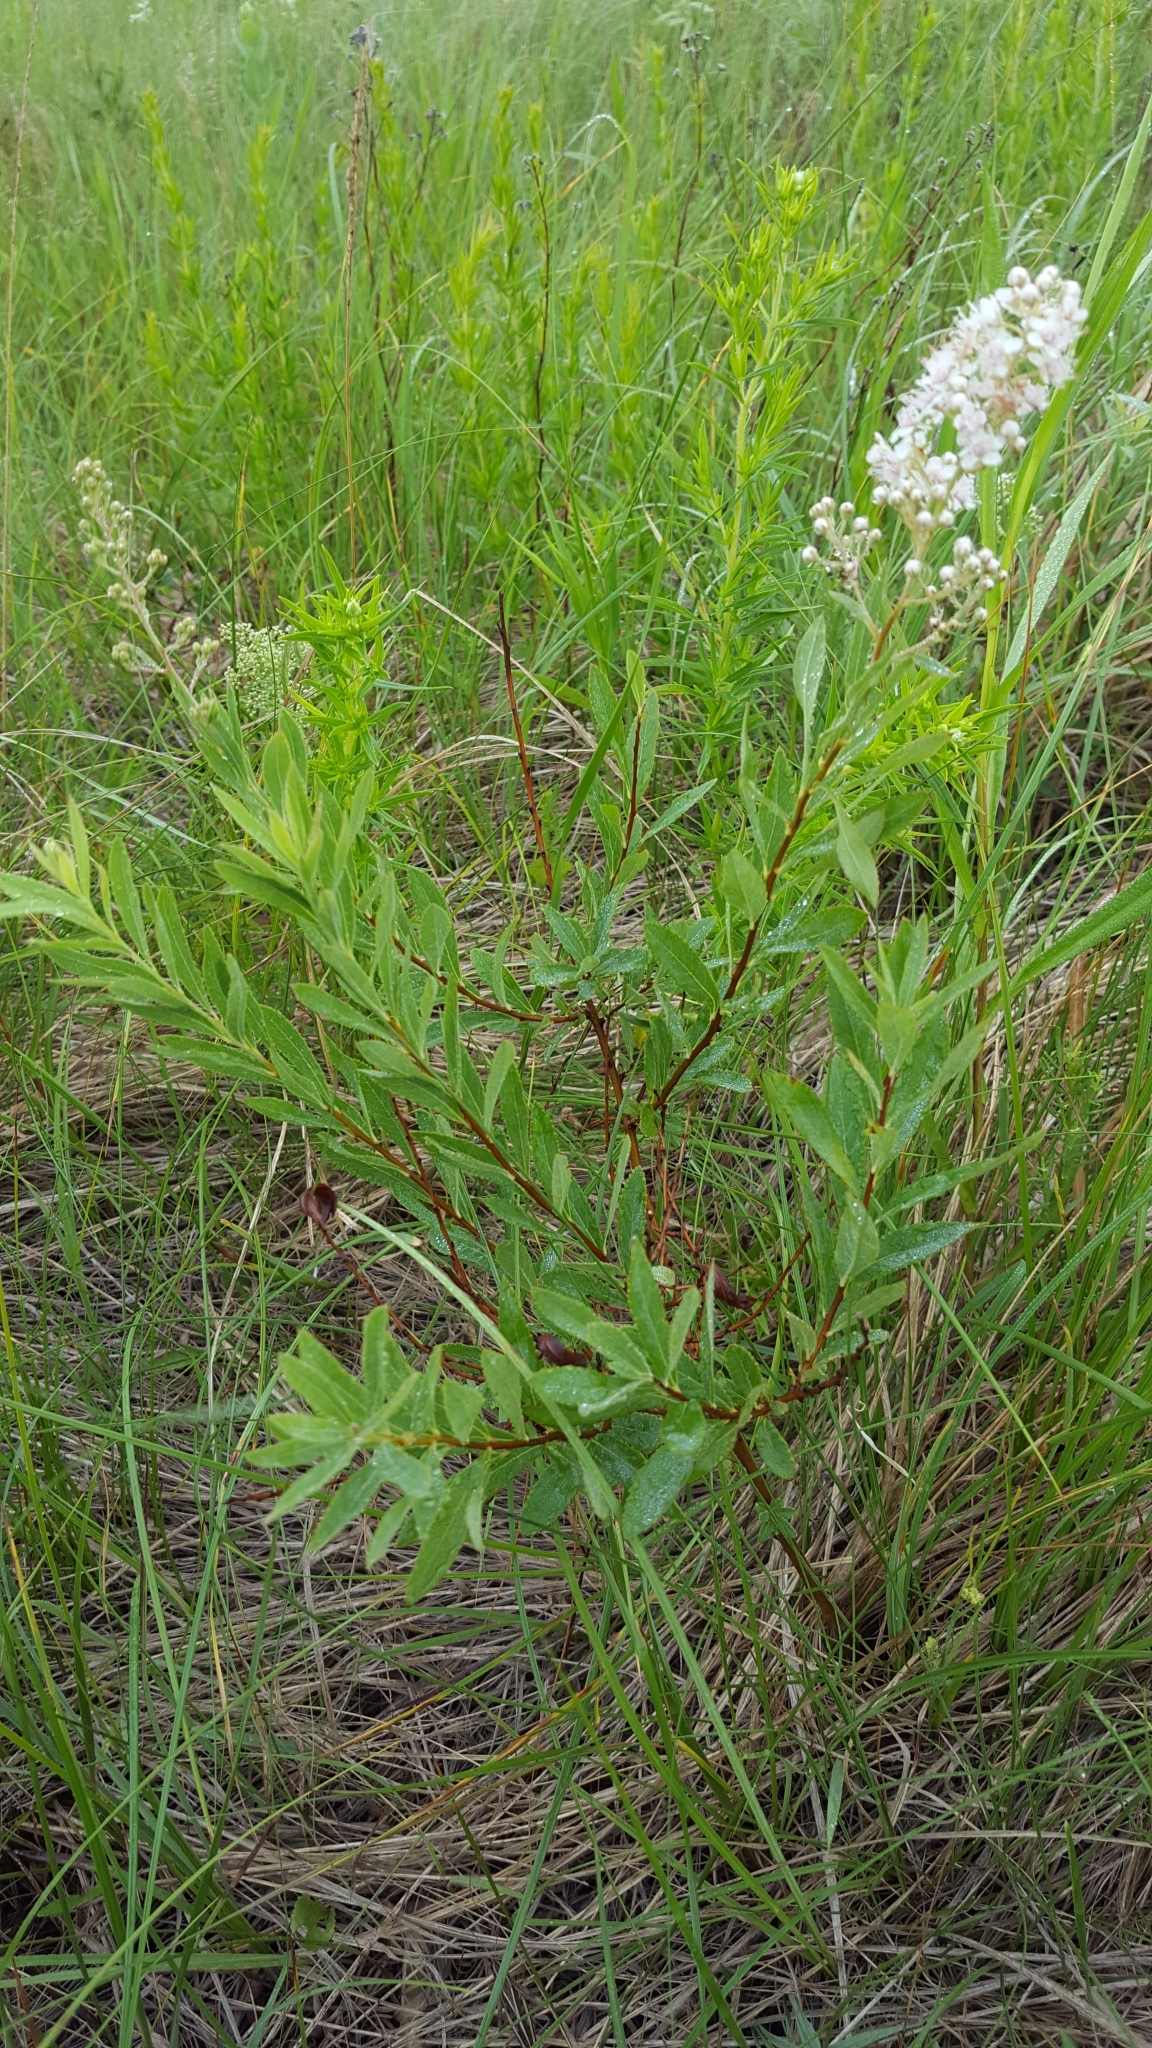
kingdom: Plantae
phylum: Tracheophyta
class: Magnoliopsida
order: Rosales
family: Rosaceae
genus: Spiraea
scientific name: Spiraea alba
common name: Pale bridewort
